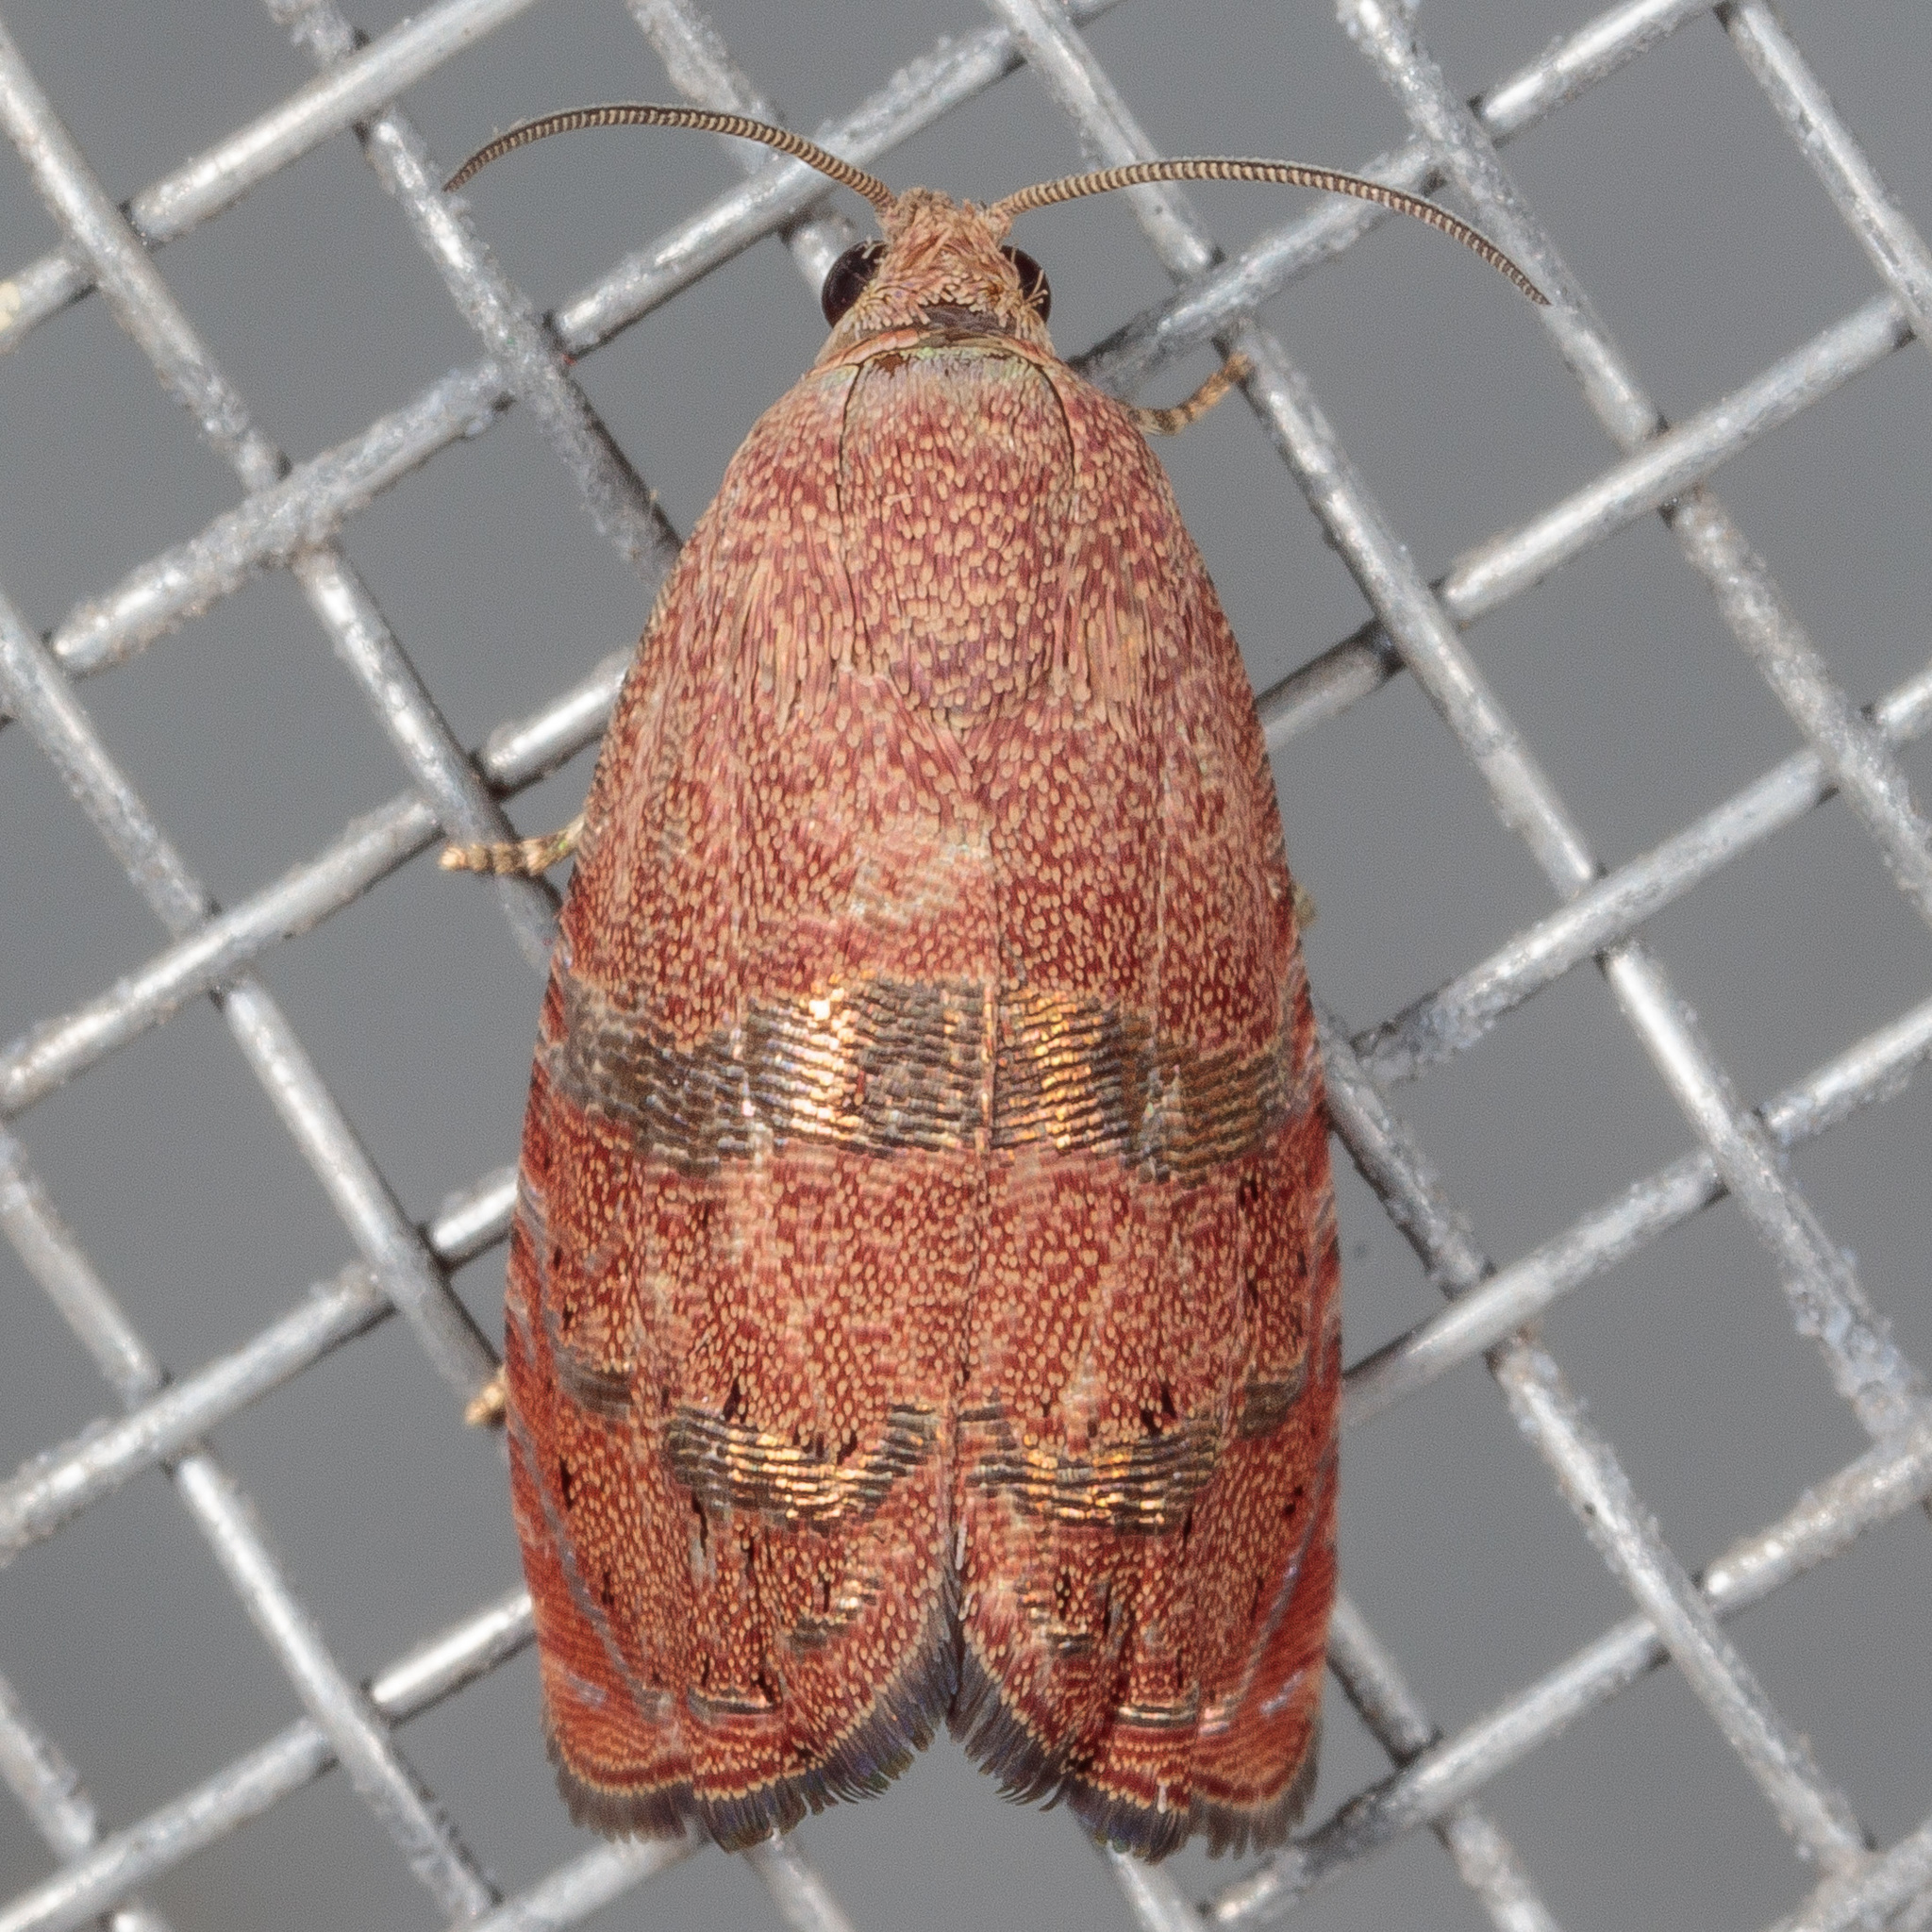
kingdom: Animalia
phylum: Arthropoda
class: Insecta
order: Lepidoptera
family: Tortricidae
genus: Cydia
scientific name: Cydia latiferreana
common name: Filbertworm moth
